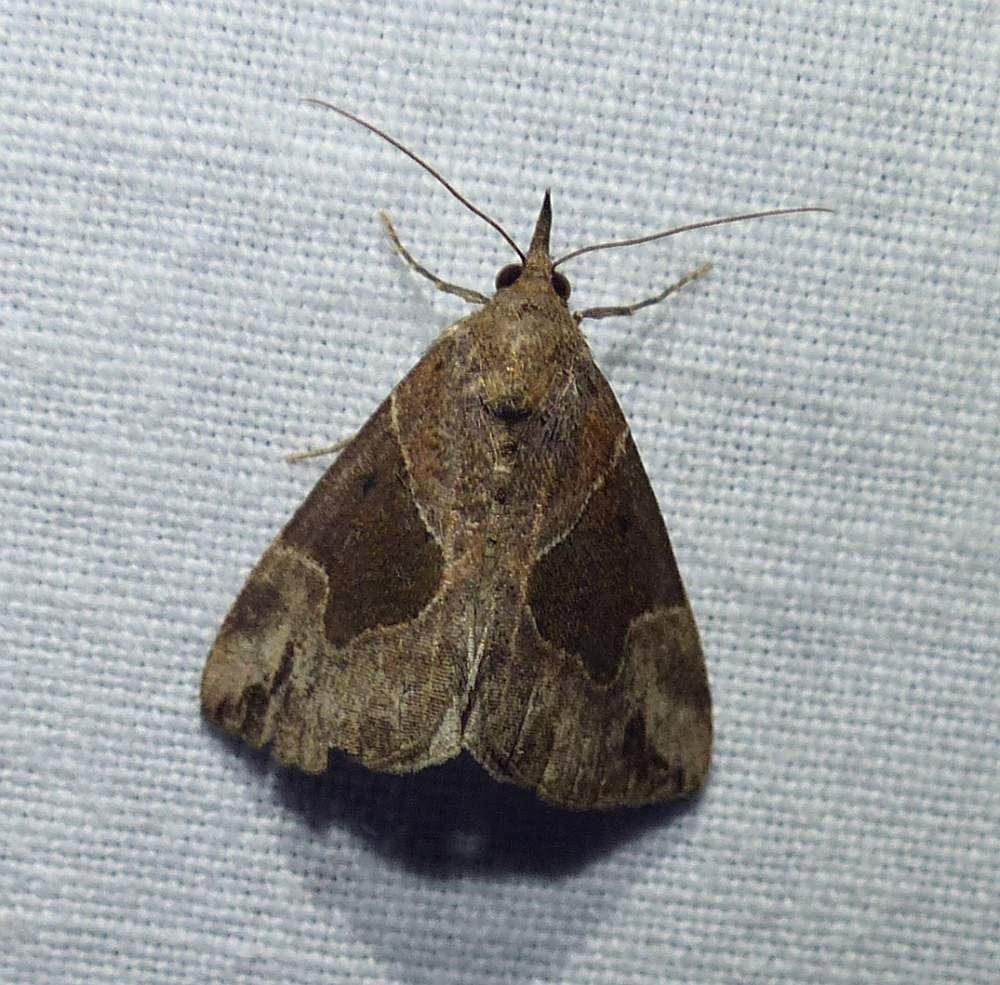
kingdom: Animalia
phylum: Arthropoda
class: Insecta
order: Lepidoptera
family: Erebidae
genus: Hypena
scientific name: Hypena manalis
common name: Flowing-line bomolocha moth
